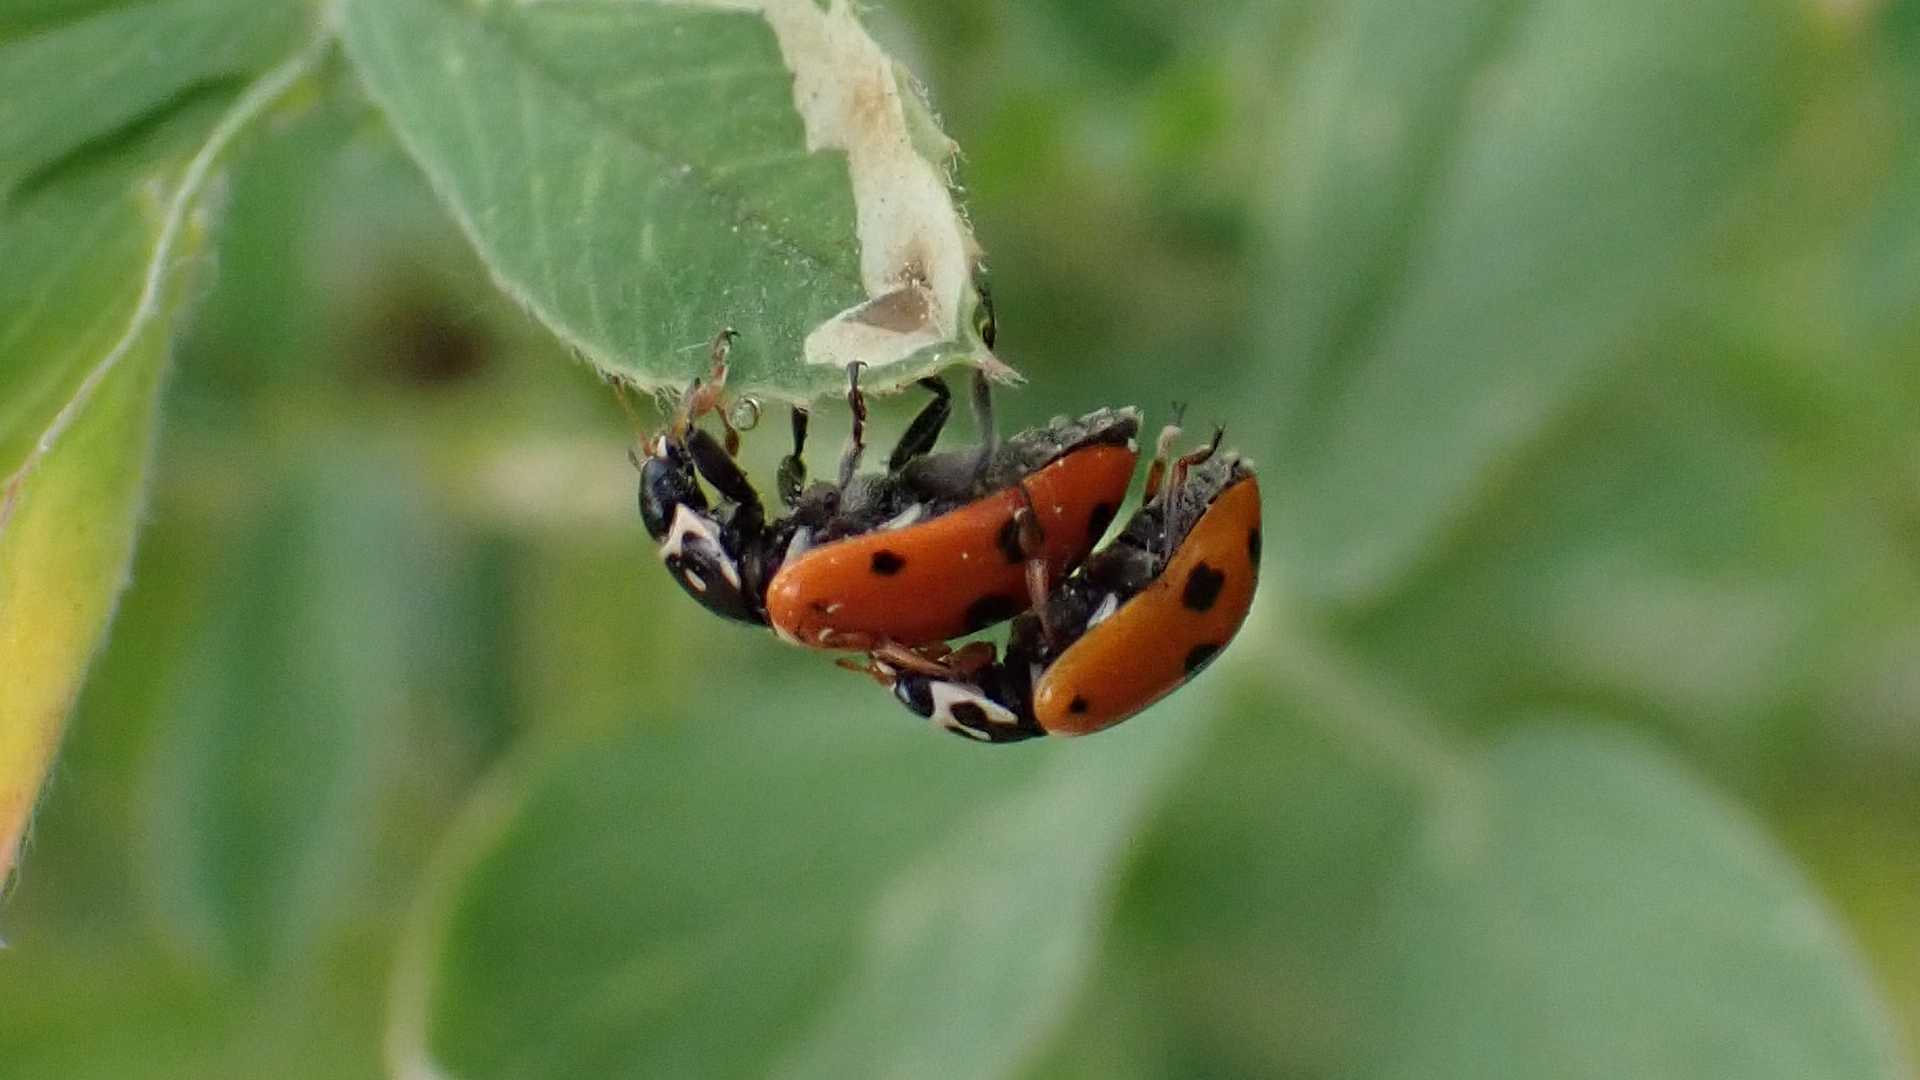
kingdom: Animalia
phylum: Arthropoda
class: Insecta
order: Coleoptera
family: Coccinellidae
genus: Hippodamia
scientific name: Hippodamia variegata
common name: Ladybird beetle
